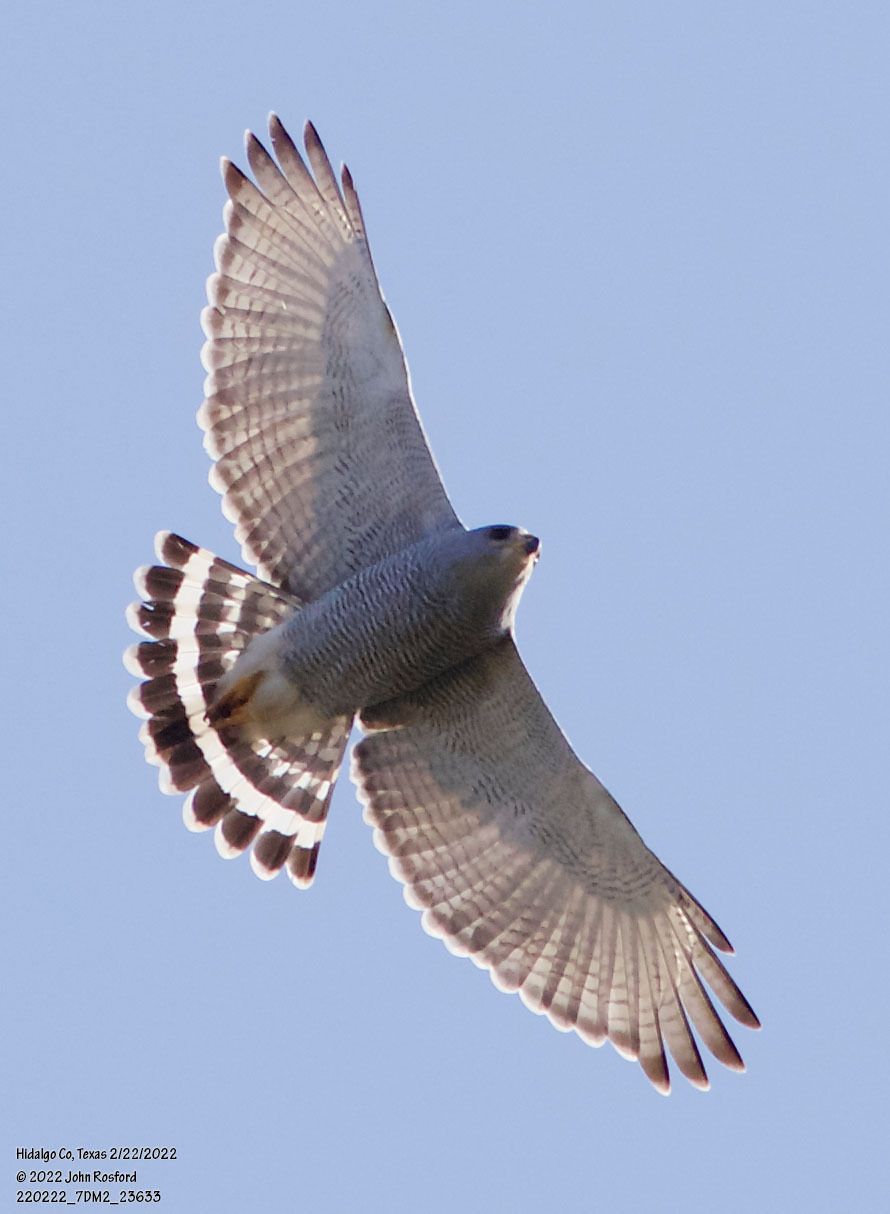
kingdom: Animalia
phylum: Chordata
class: Aves
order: Accipitriformes
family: Accipitridae
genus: Buteo
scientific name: Buteo nitidus
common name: Grey-lined hawk
